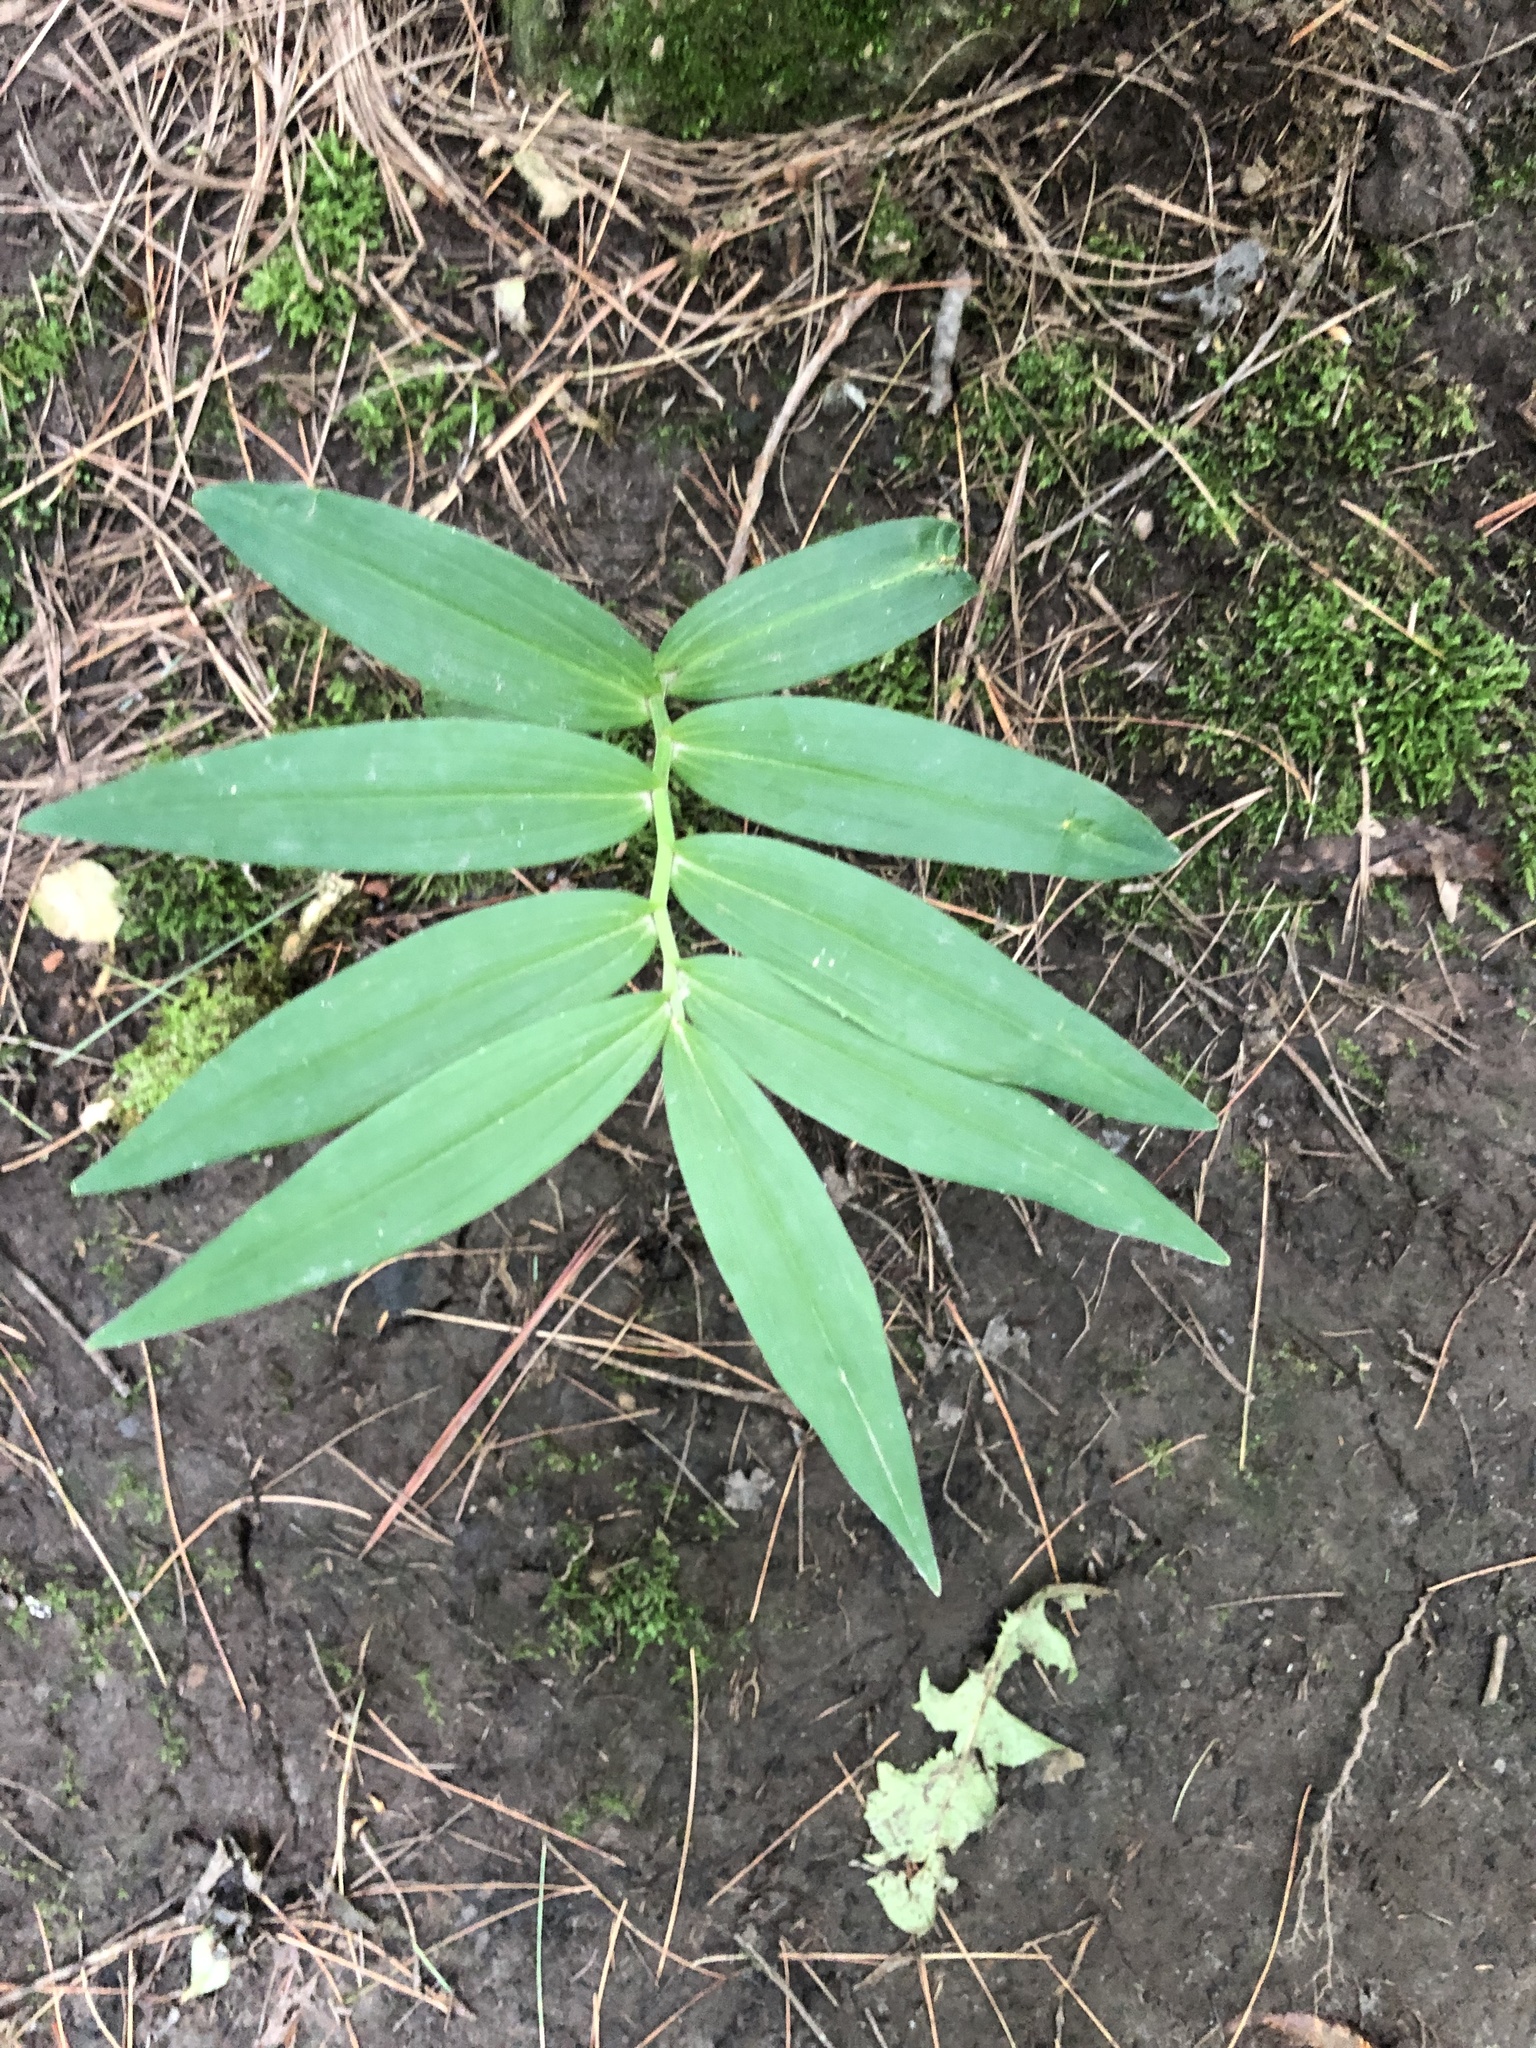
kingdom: Plantae
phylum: Tracheophyta
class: Liliopsida
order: Asparagales
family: Asparagaceae
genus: Maianthemum
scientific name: Maianthemum stellatum
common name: Little false solomon's seal
